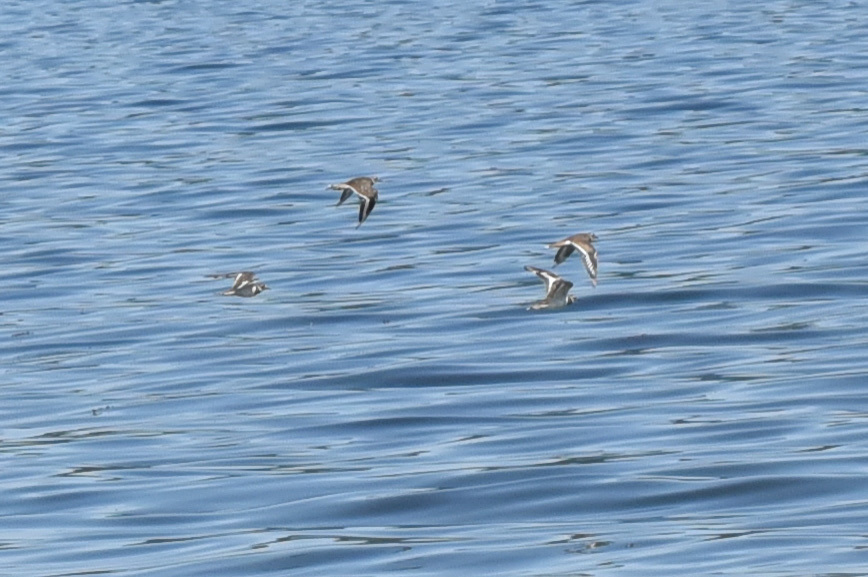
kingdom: Animalia
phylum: Chordata
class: Aves
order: Charadriiformes
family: Charadriidae
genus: Charadrius
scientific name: Charadrius vociferus
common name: Killdeer
